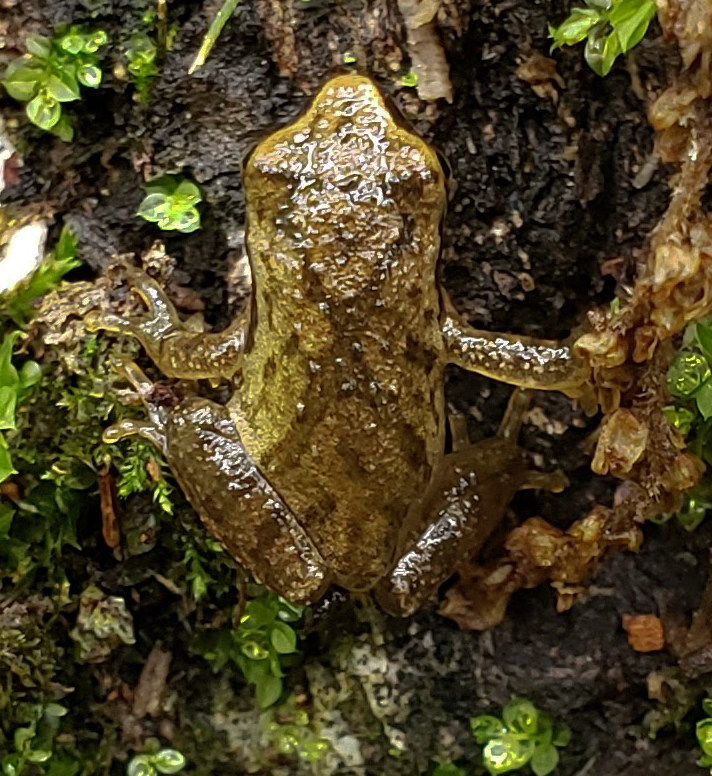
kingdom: Animalia
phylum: Chordata
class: Amphibia
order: Anura
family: Hylidae
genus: Pseudacris
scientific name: Pseudacris crucifer
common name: Spring peeper
